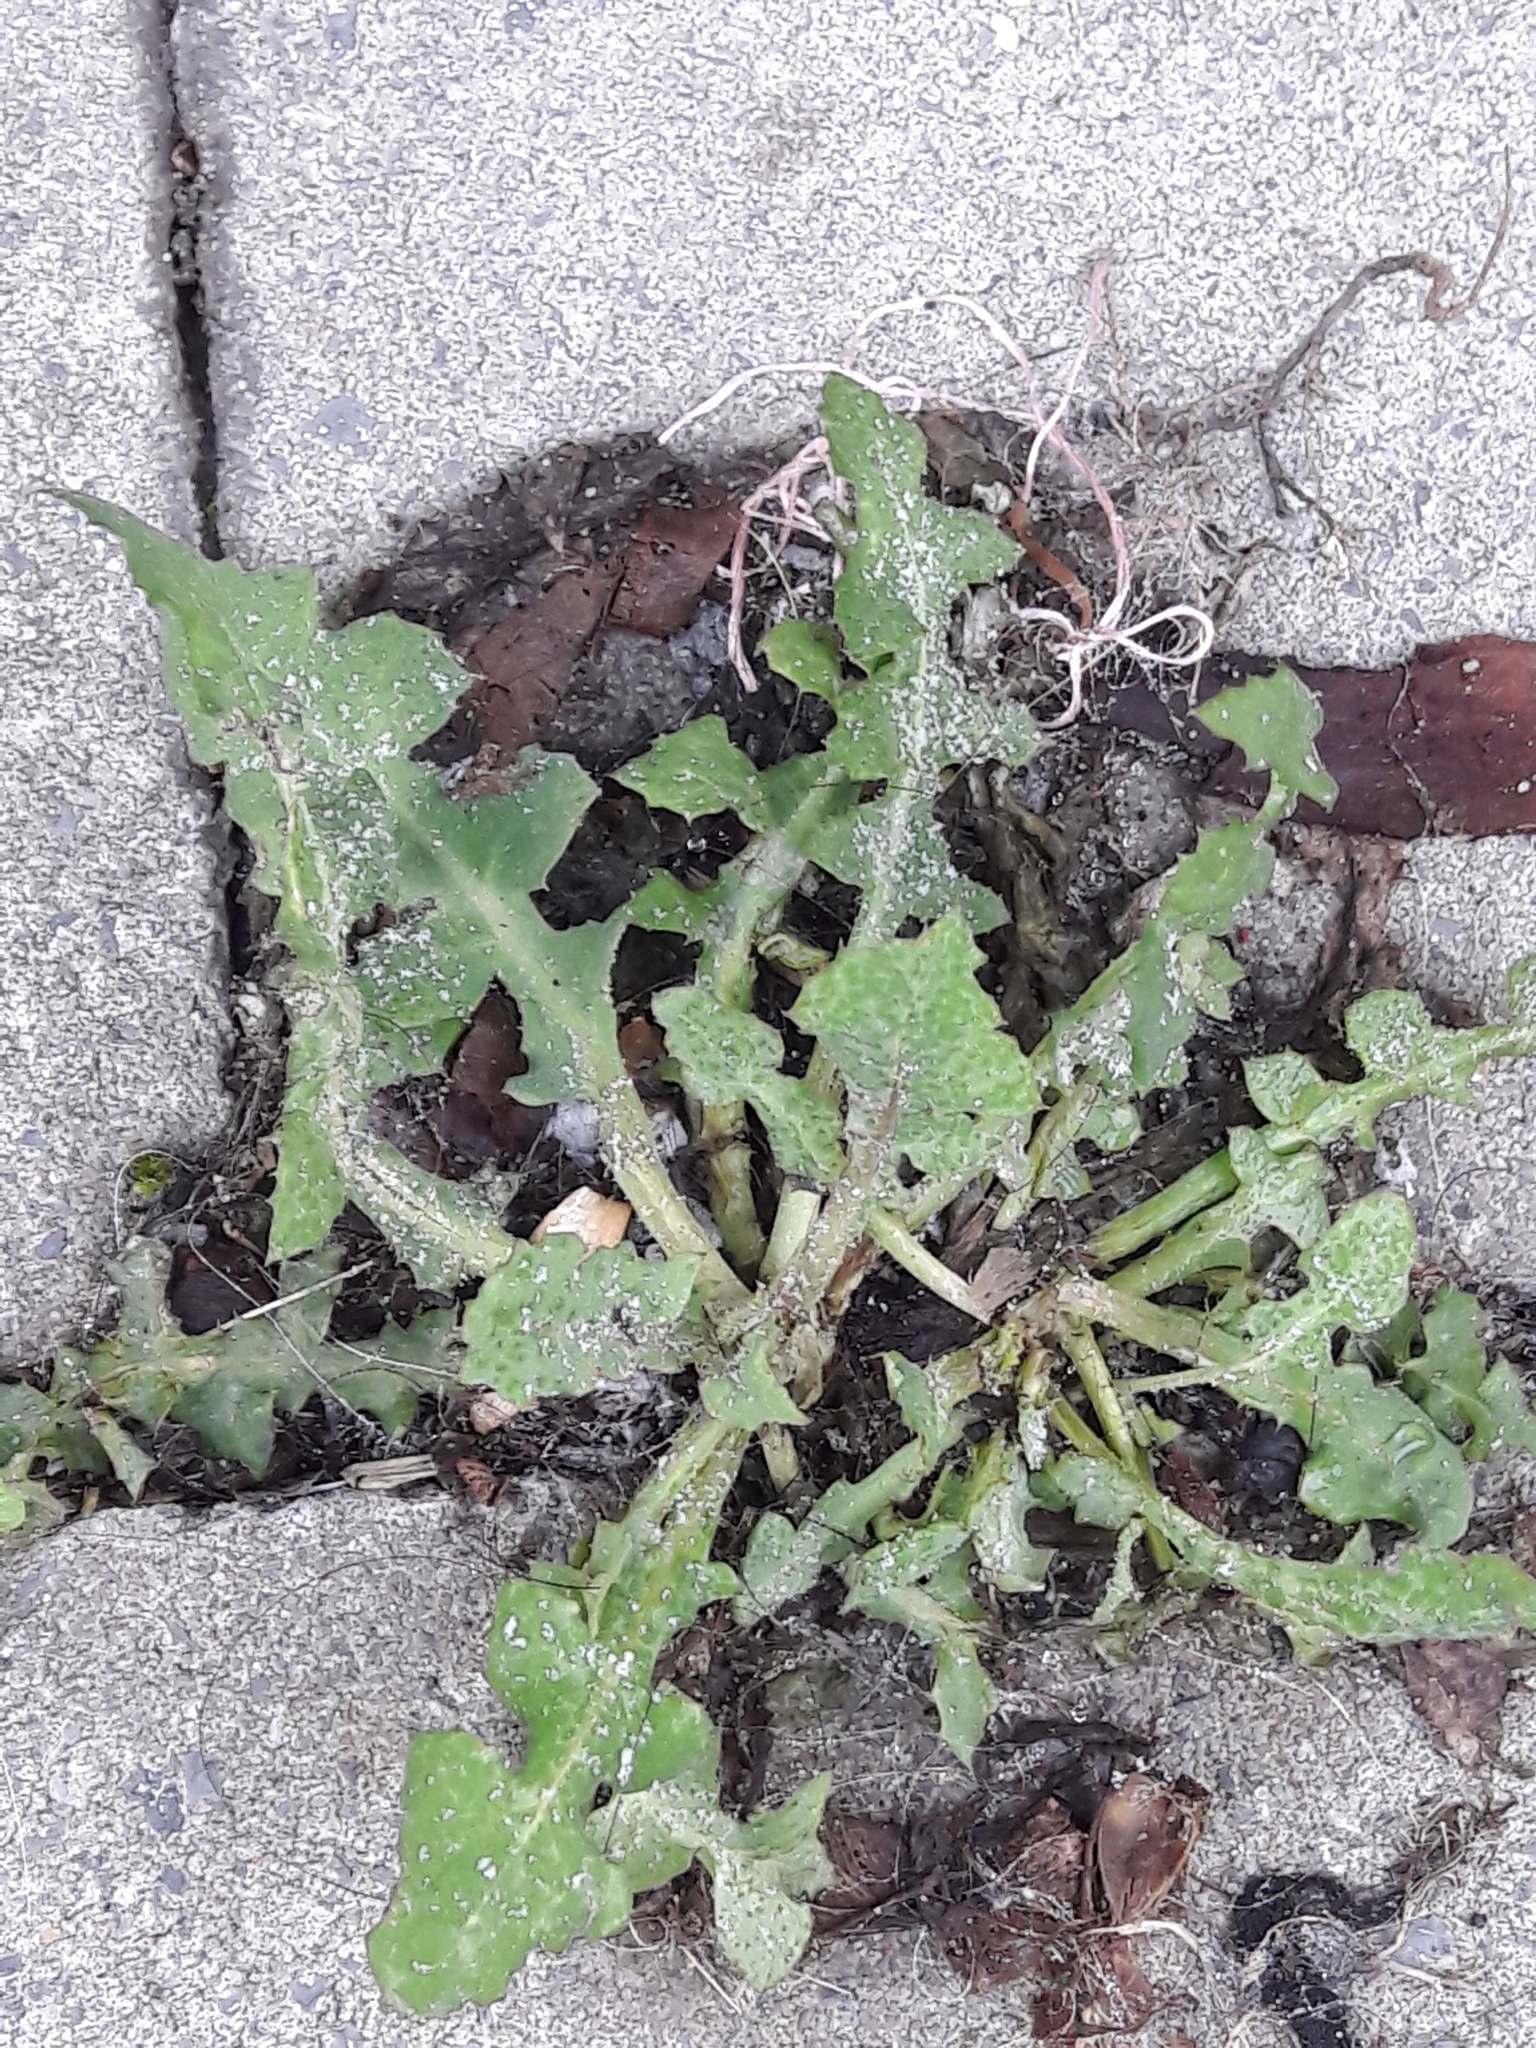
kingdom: Plantae
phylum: Tracheophyta
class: Magnoliopsida
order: Asterales
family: Asteraceae
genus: Sonchus
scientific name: Sonchus oleraceus
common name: Common sowthistle
